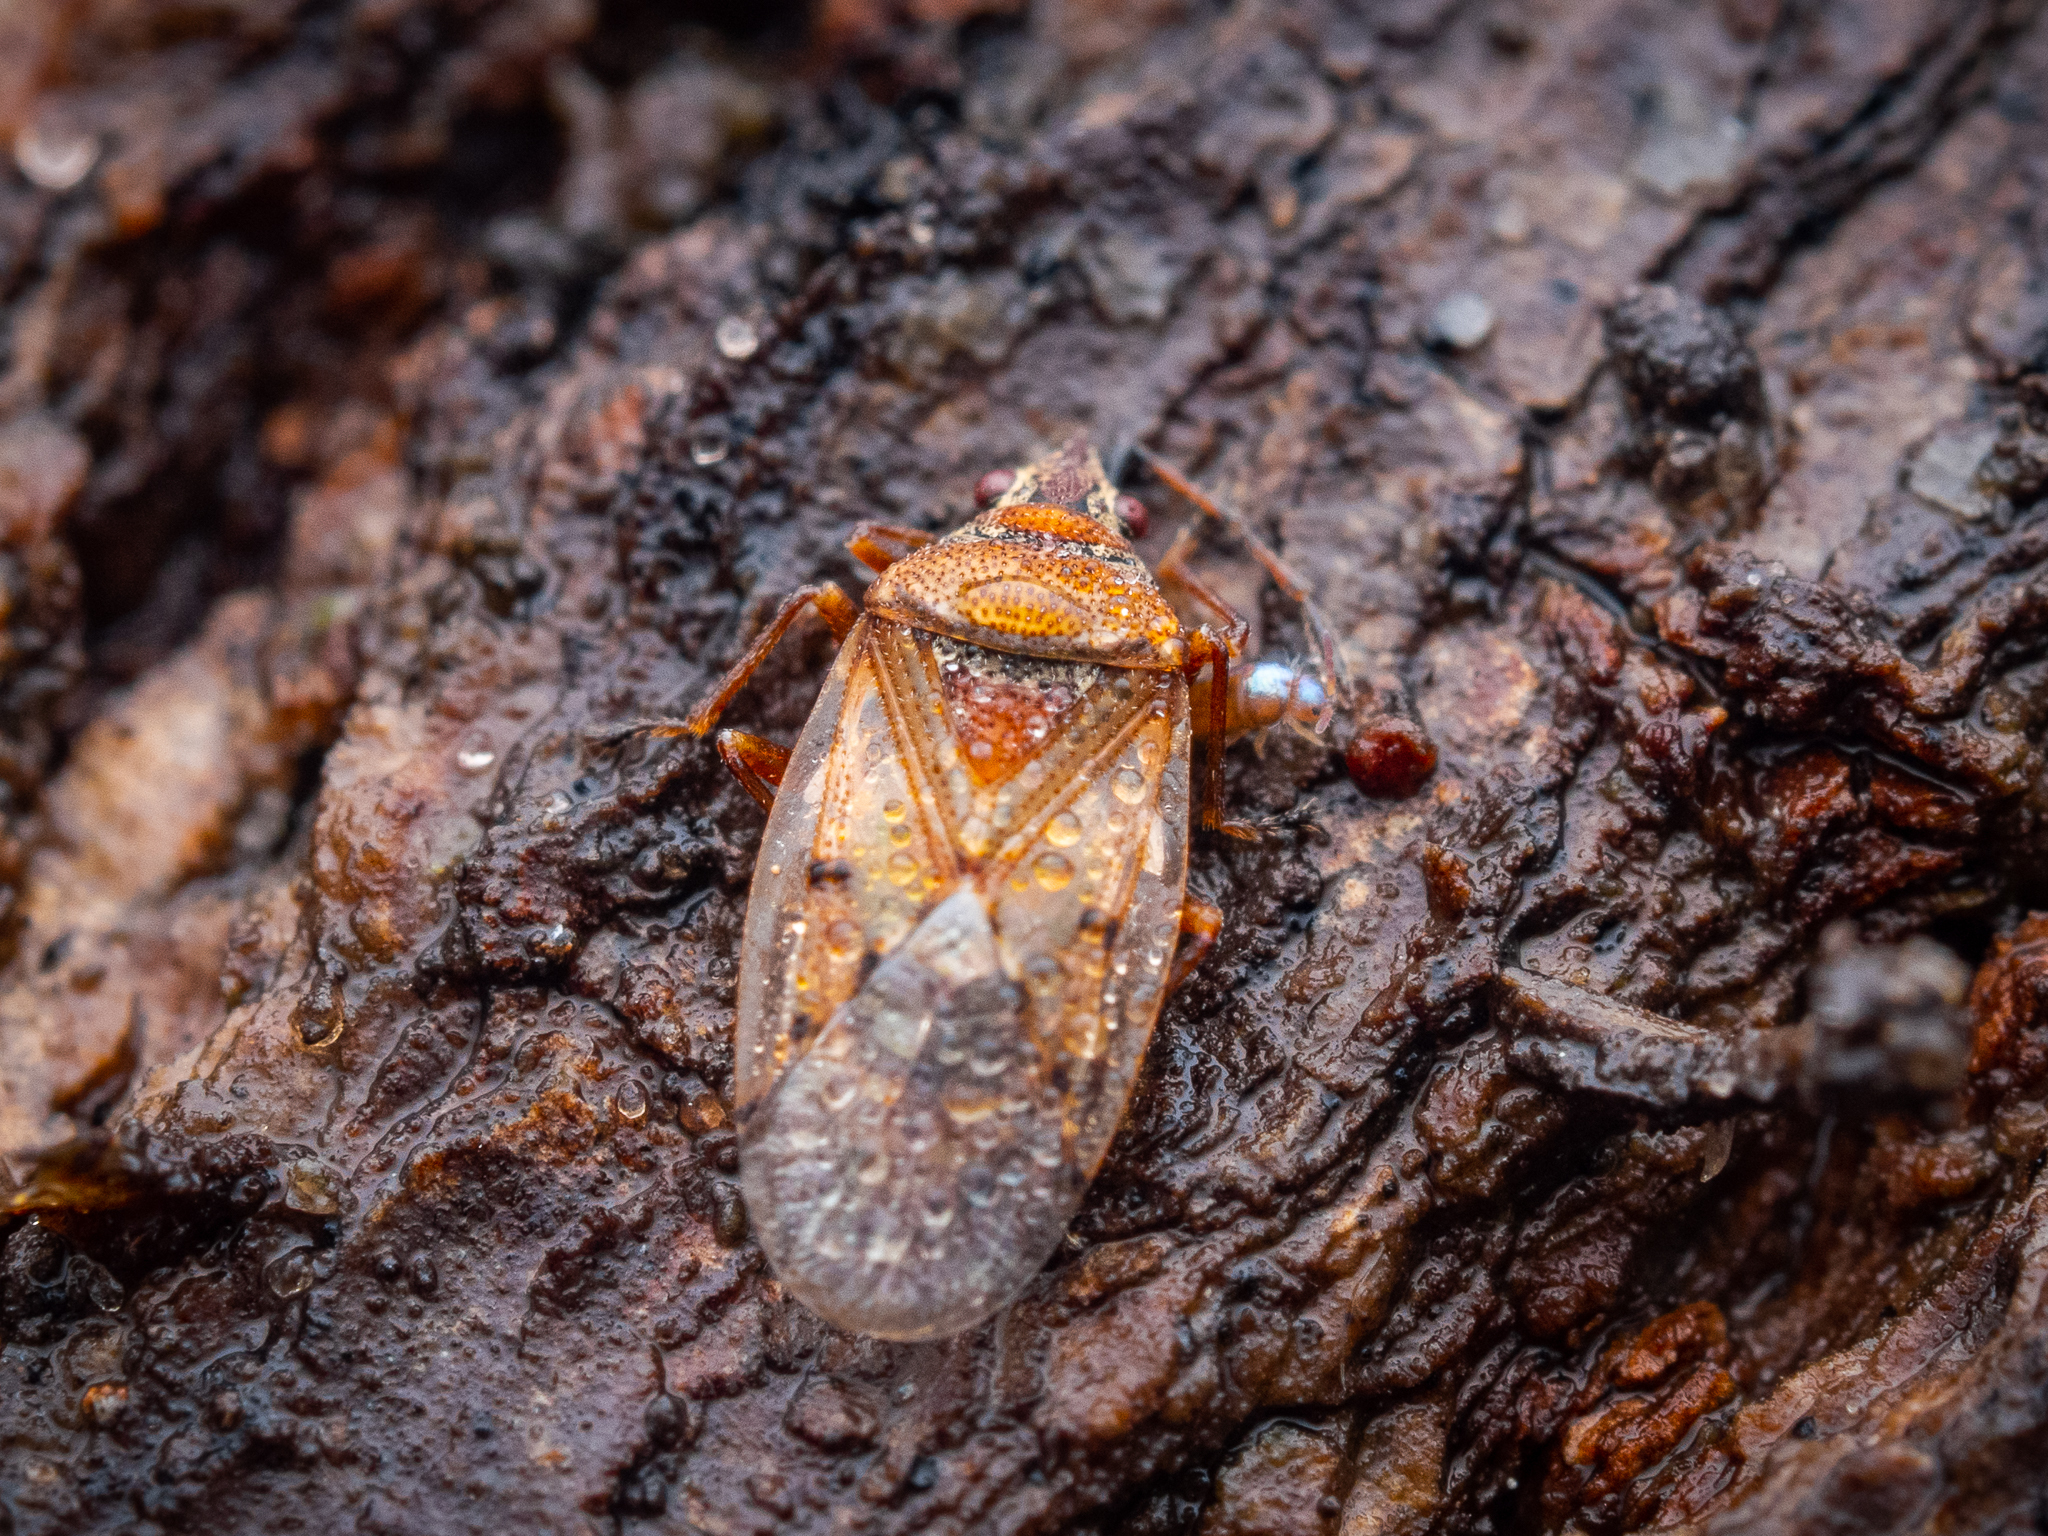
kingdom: Animalia
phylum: Arthropoda
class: Insecta
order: Hemiptera
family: Lygaeidae
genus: Kleidocerys
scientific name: Kleidocerys resedae
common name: Birch catkin bug
